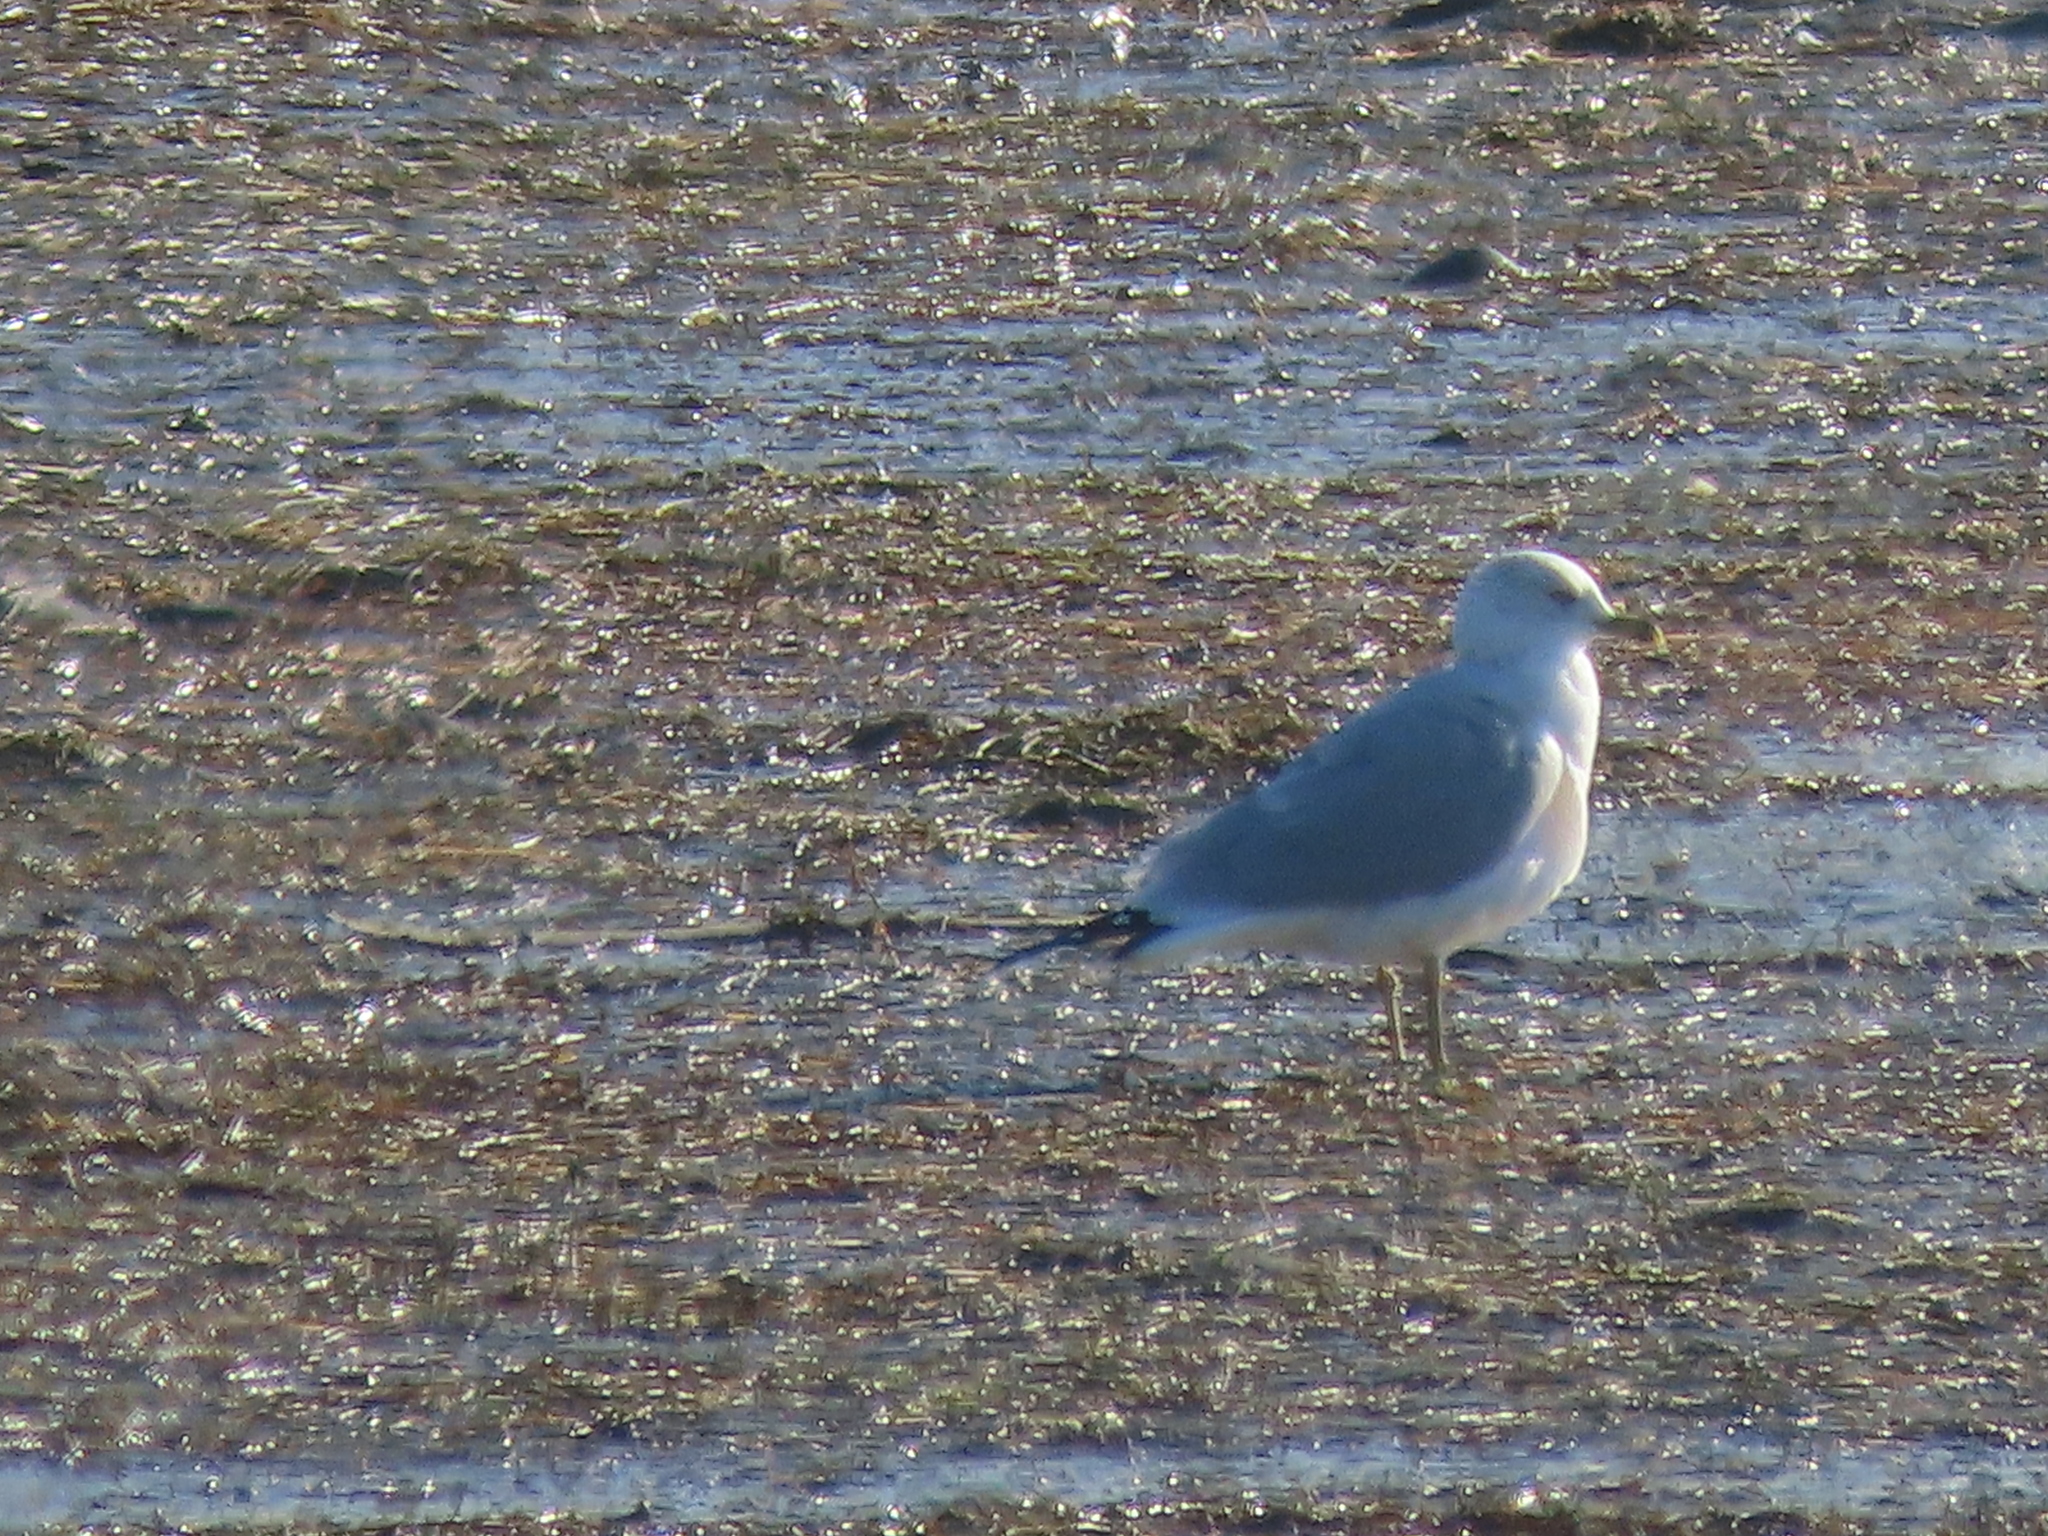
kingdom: Animalia
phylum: Chordata
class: Aves
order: Charadriiformes
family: Laridae
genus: Larus
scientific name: Larus delawarensis
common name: Ring-billed gull
